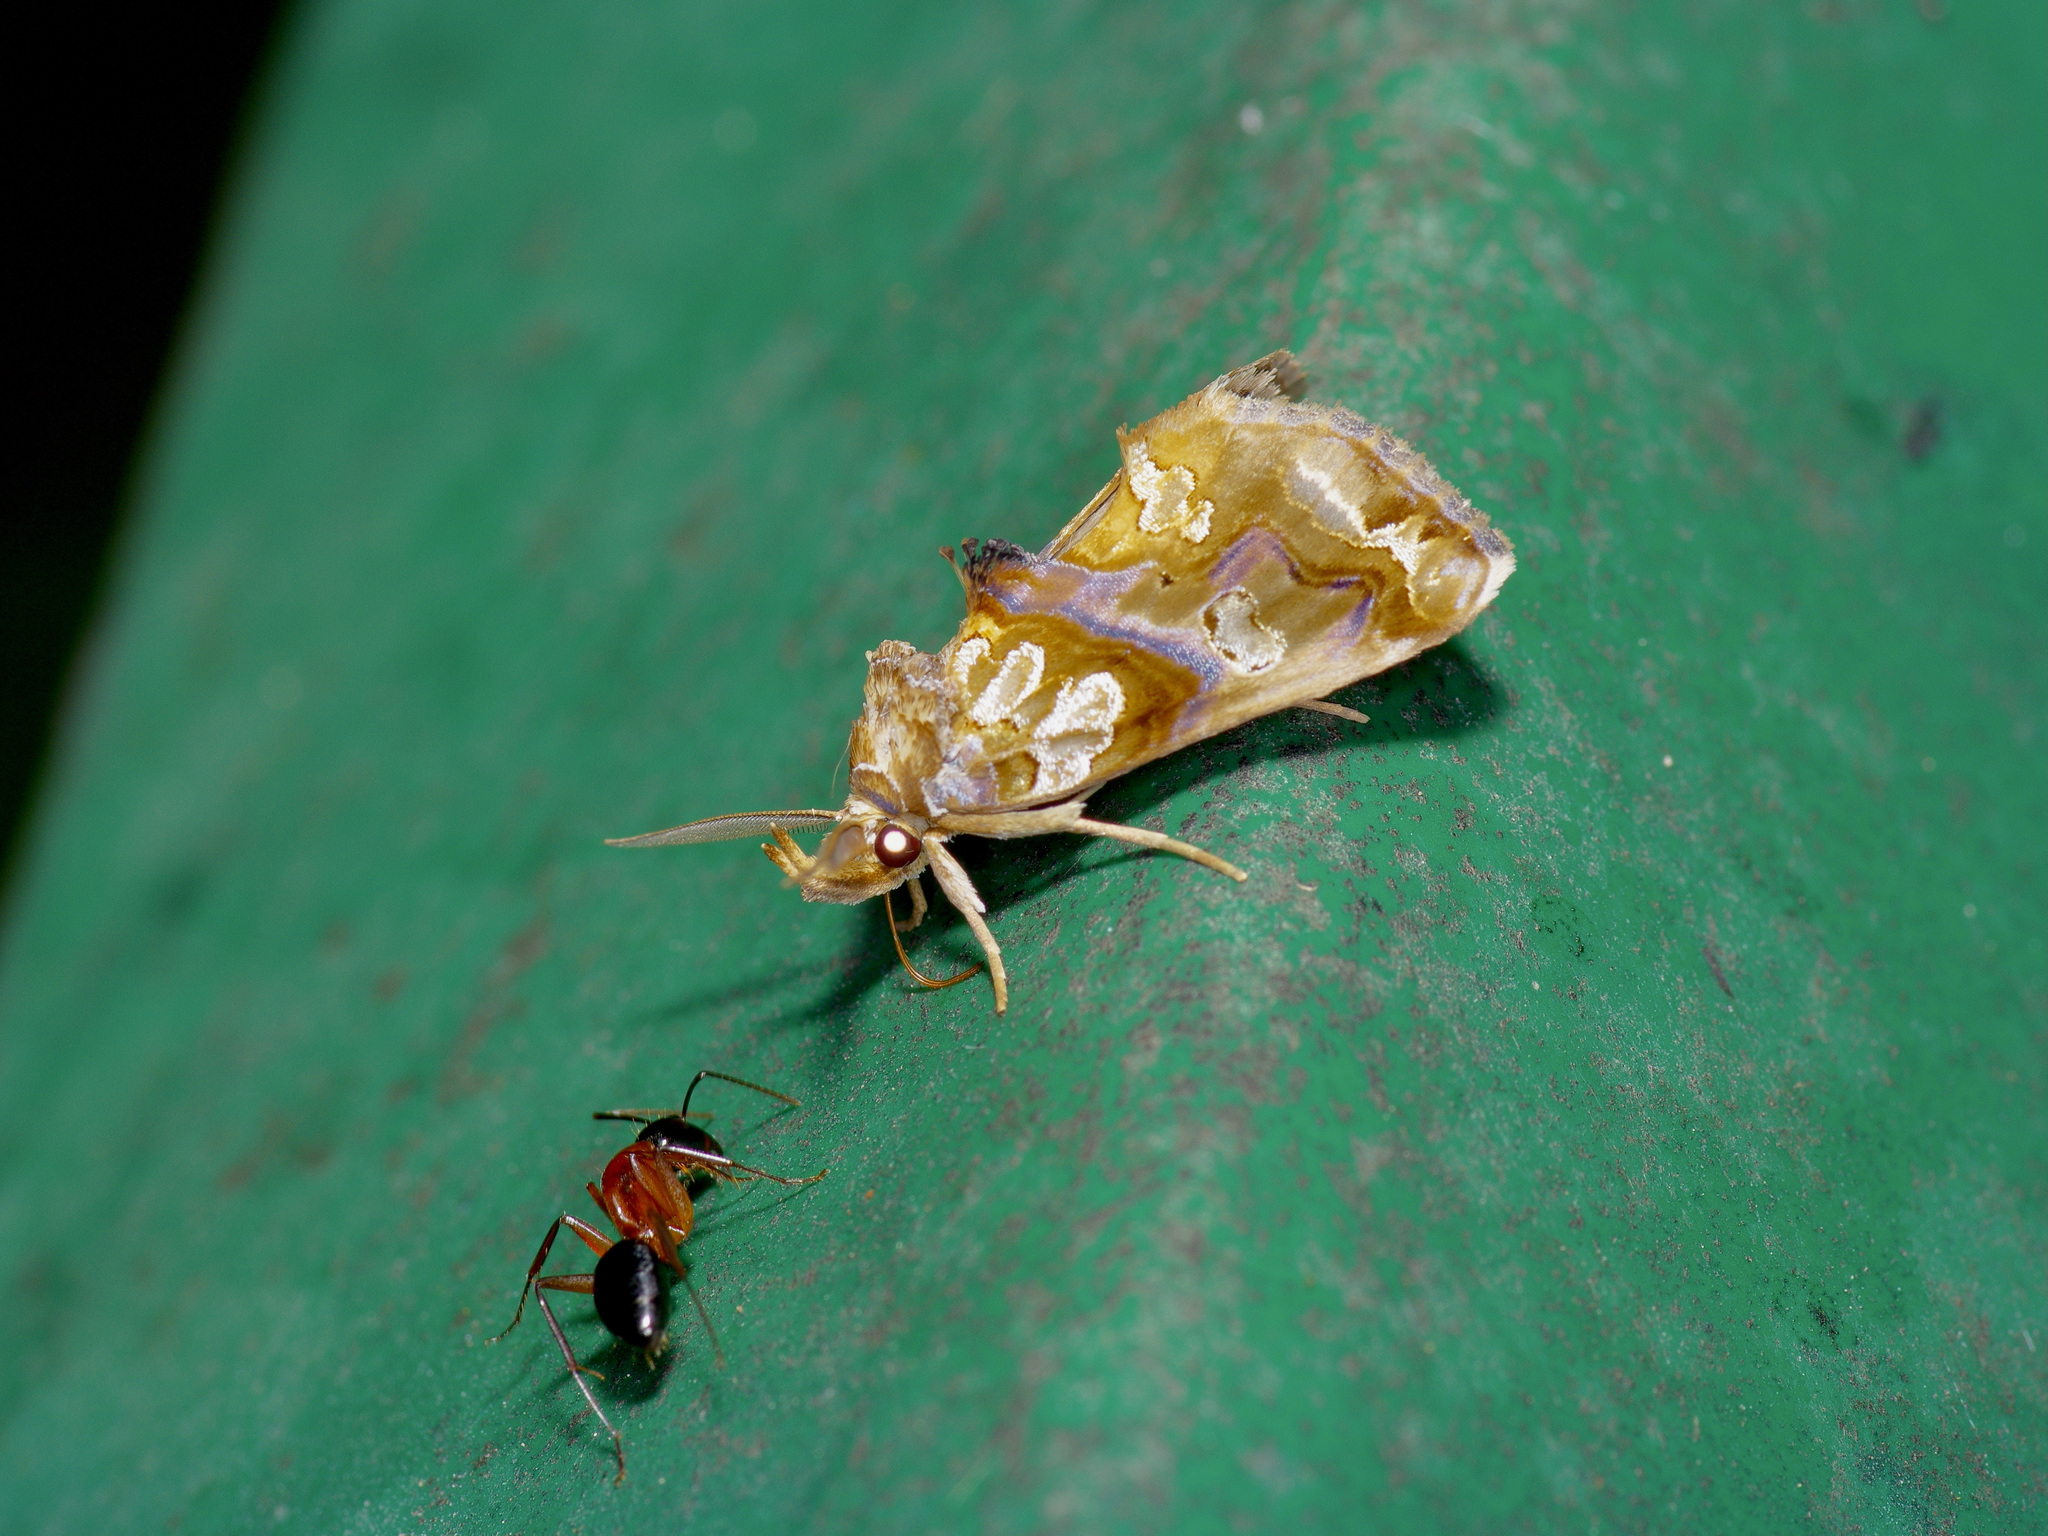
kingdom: Animalia
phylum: Arthropoda
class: Insecta
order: Lepidoptera
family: Erebidae
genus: Plusiodonta
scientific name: Plusiodonta compressipalpis
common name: Moonseed moth
